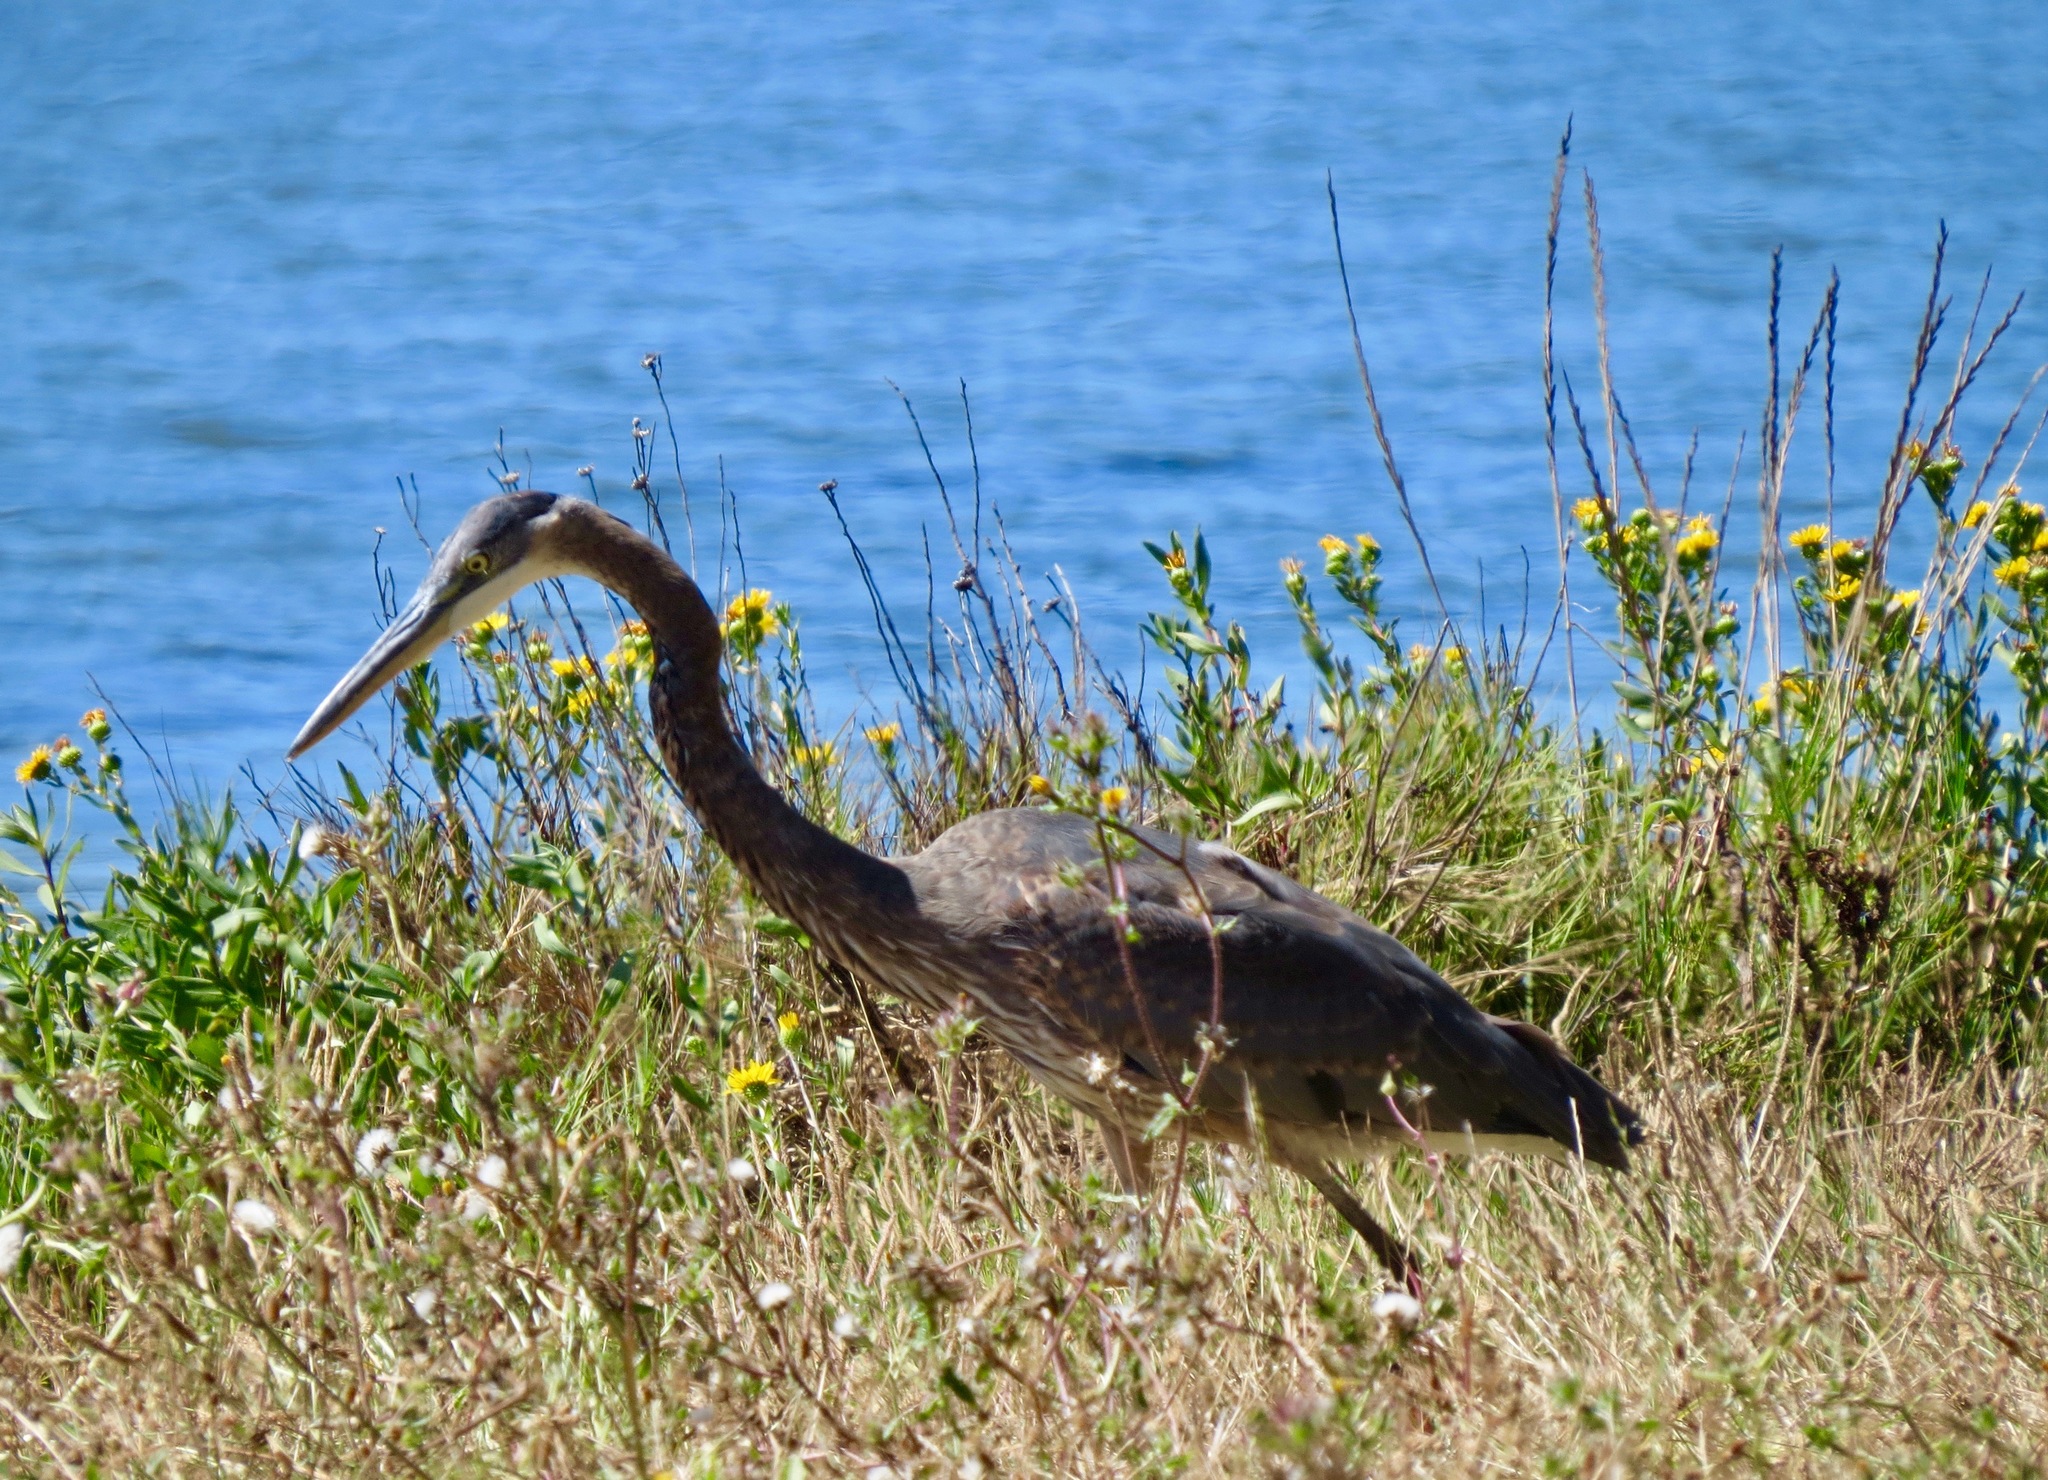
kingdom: Animalia
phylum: Chordata
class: Aves
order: Pelecaniformes
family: Ardeidae
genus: Ardea
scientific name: Ardea herodias
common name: Great blue heron
